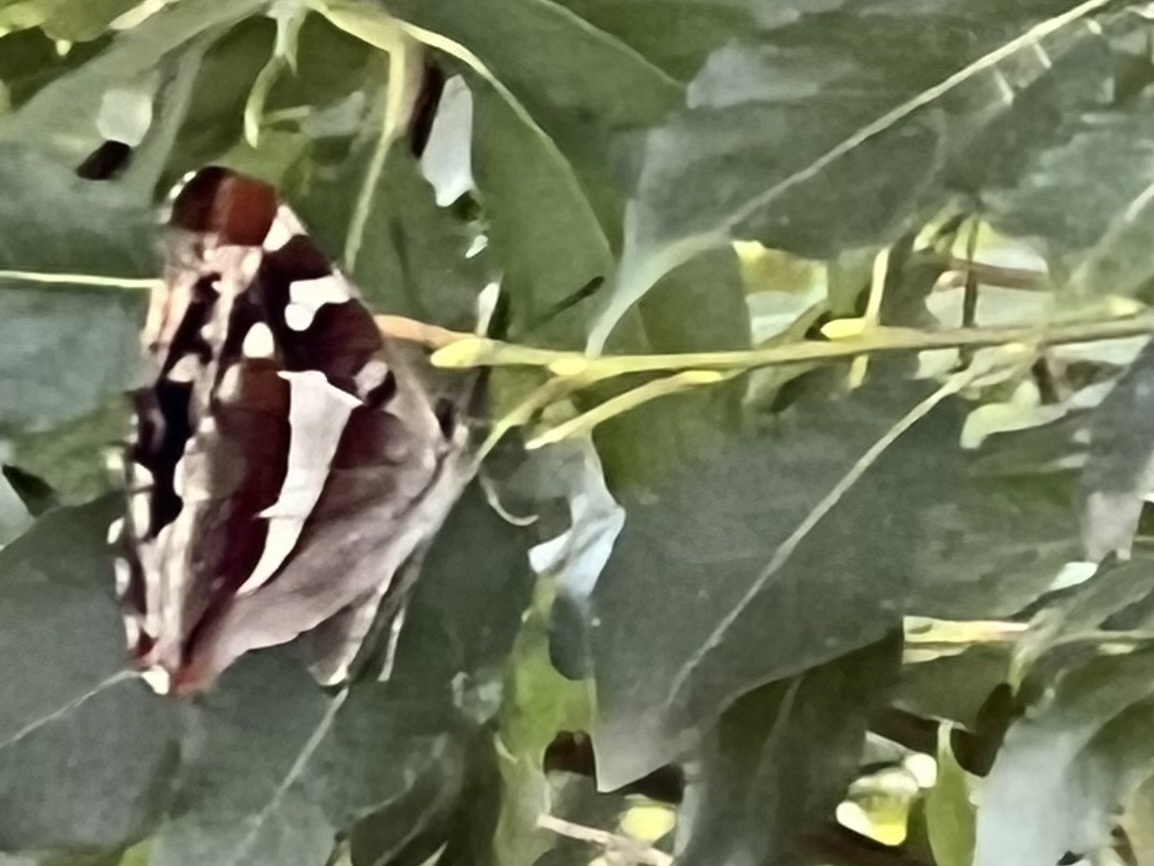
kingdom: Animalia
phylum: Arthropoda
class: Insecta
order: Lepidoptera
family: Nymphalidae
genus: Apatura
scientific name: Apatura iris
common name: Purple emperor
